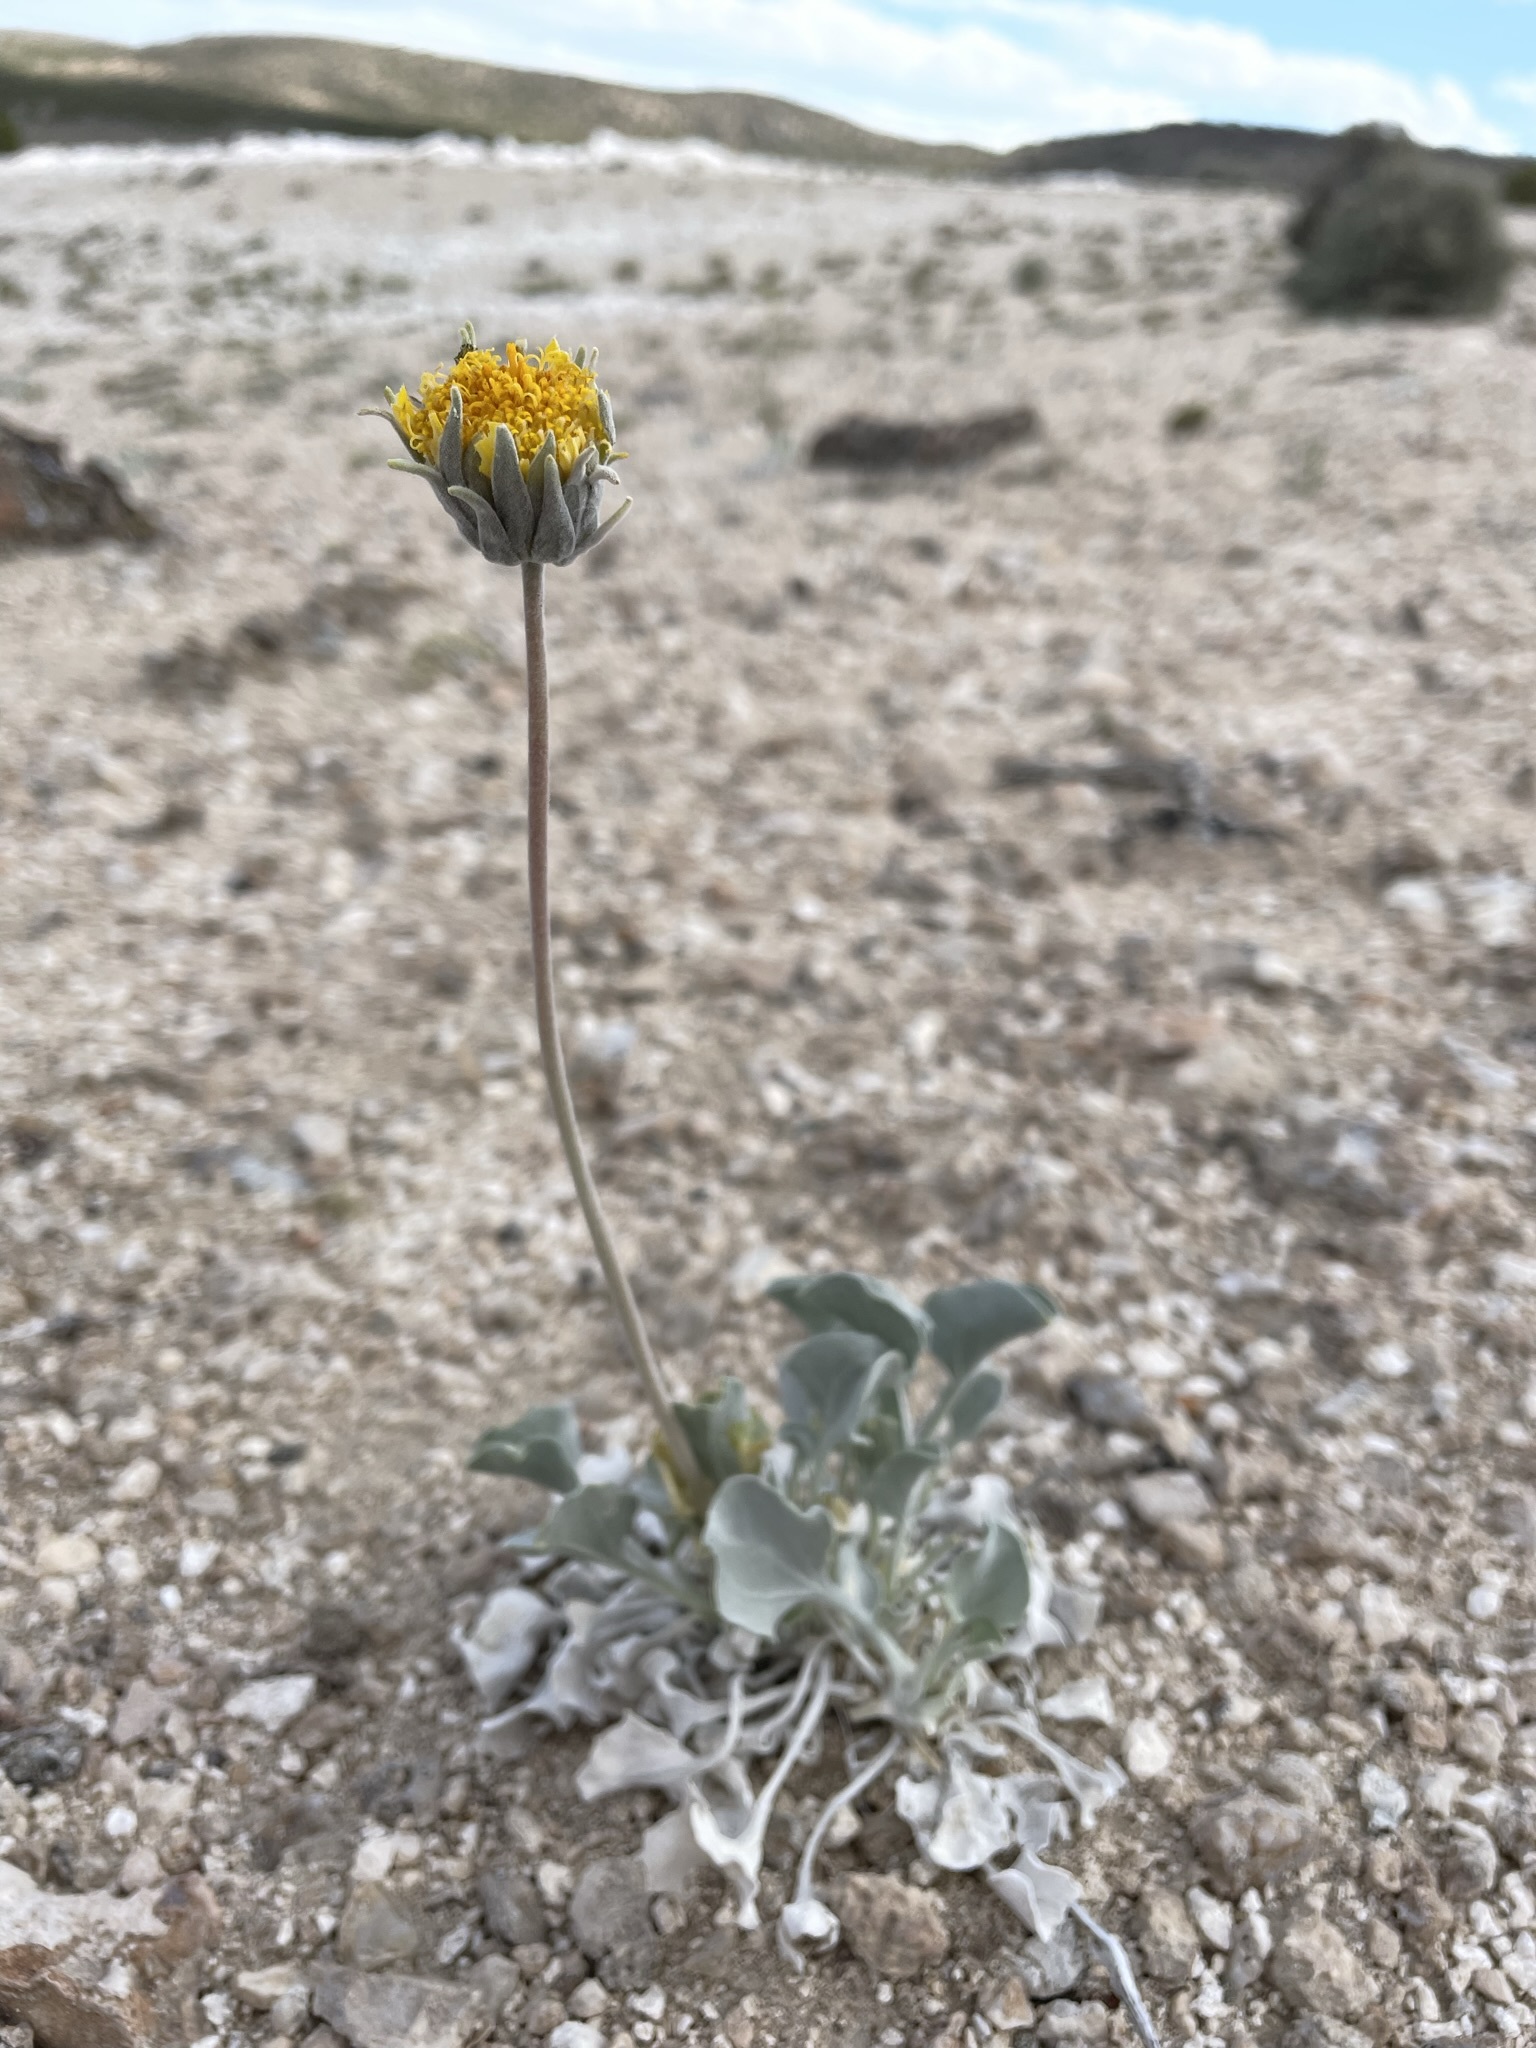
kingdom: Plantae
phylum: Tracheophyta
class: Magnoliopsida
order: Asterales
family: Asteraceae
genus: Enceliopsis
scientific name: Enceliopsis nudicaulis
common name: Naked-stem daisy
